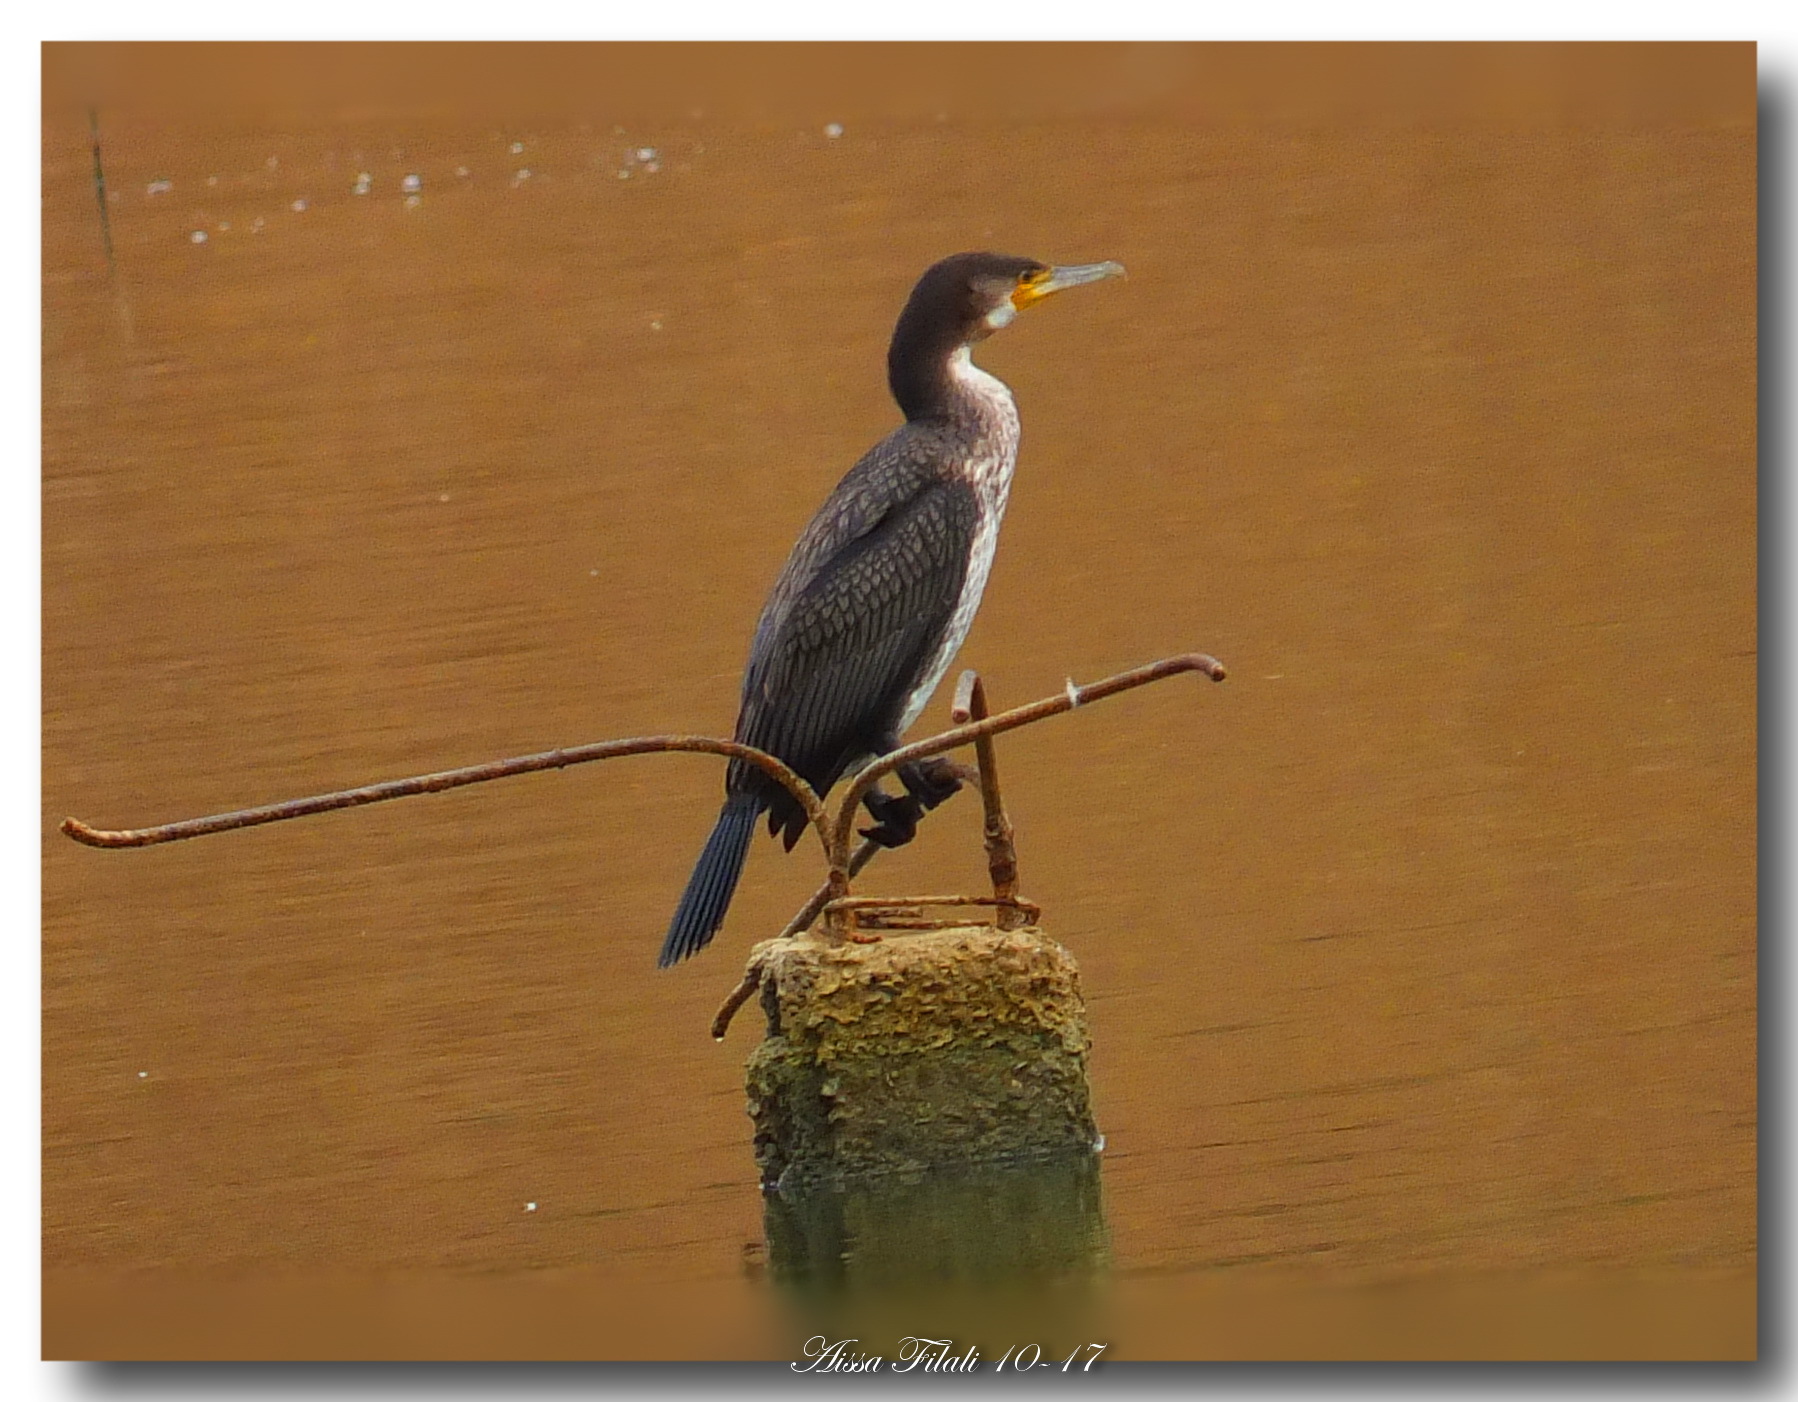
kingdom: Animalia
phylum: Chordata
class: Aves
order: Suliformes
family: Phalacrocoracidae
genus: Phalacrocorax
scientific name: Phalacrocorax carbo
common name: Great cormorant
